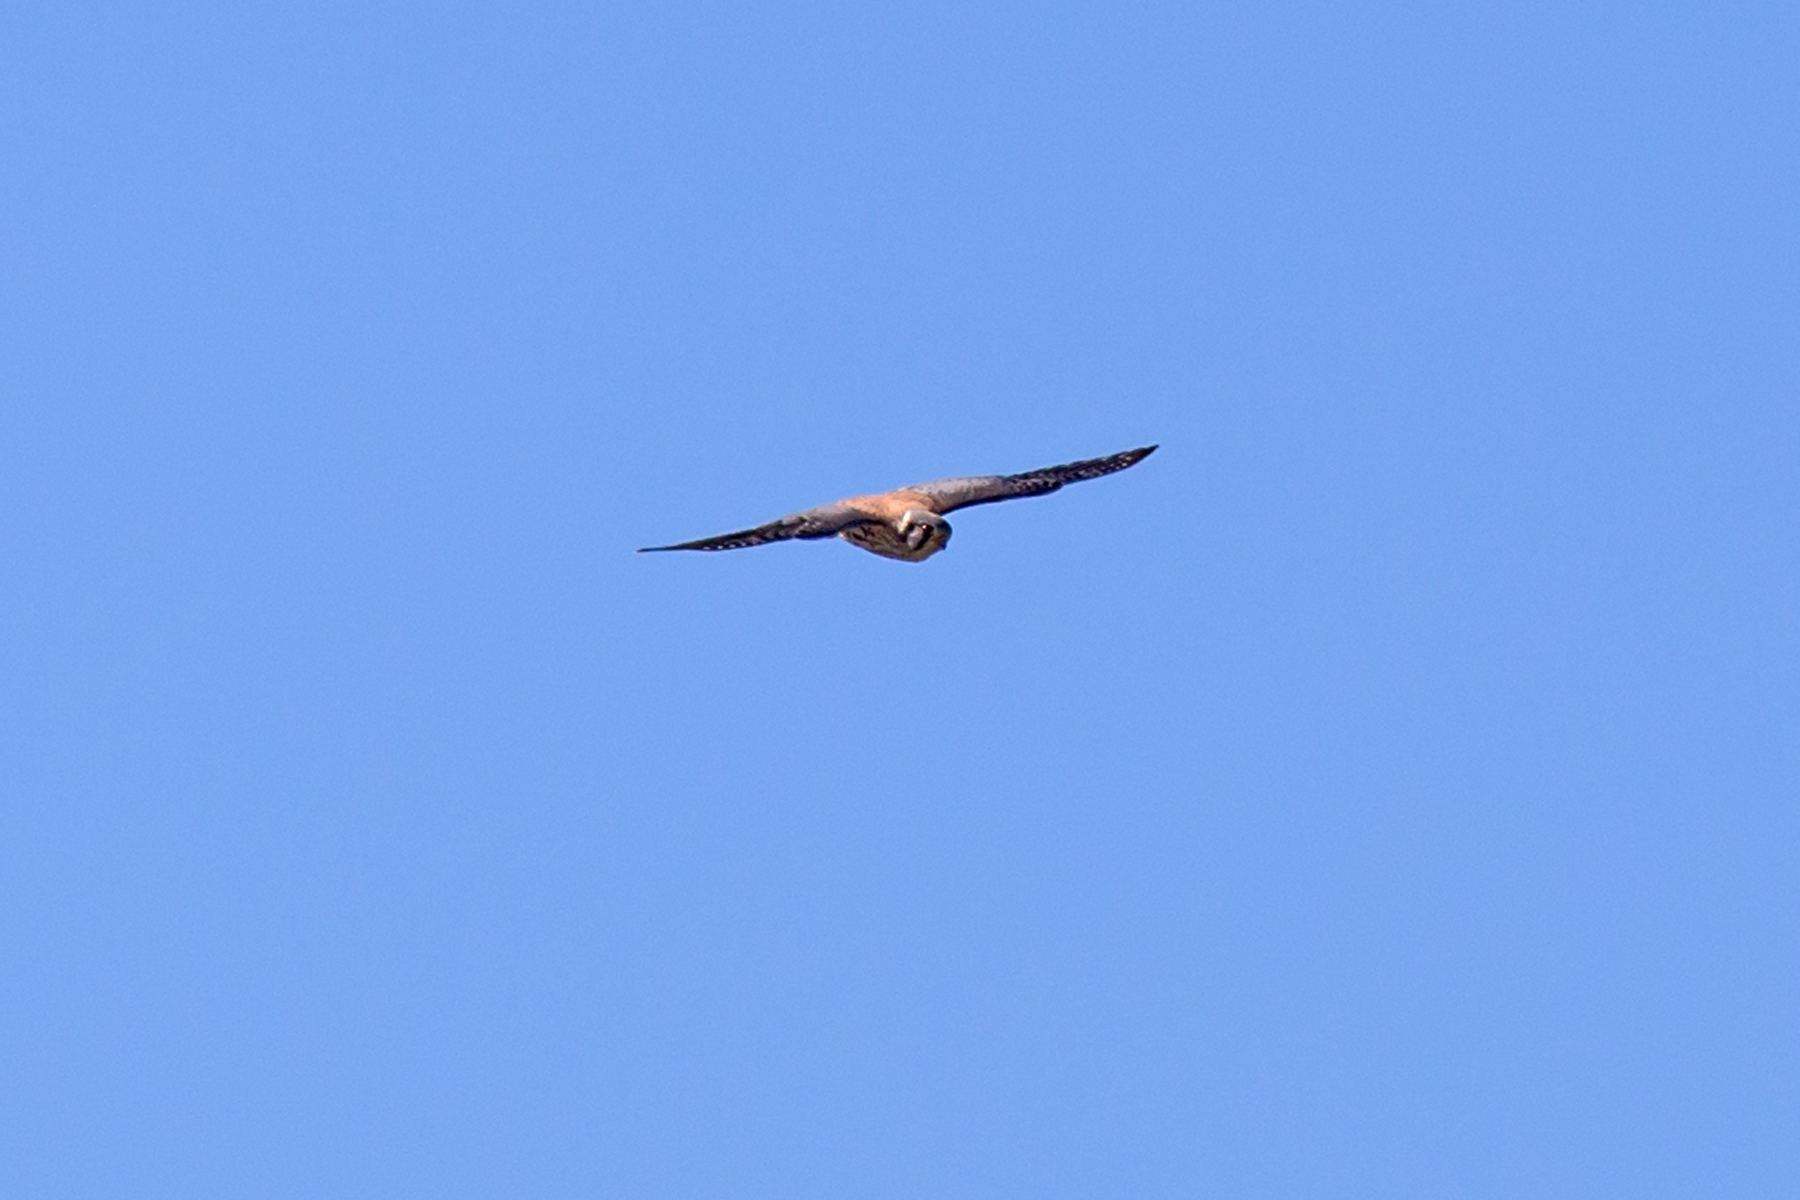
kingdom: Animalia
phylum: Chordata
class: Aves
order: Falconiformes
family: Falconidae
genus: Falco
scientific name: Falco sparverius
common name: American kestrel
